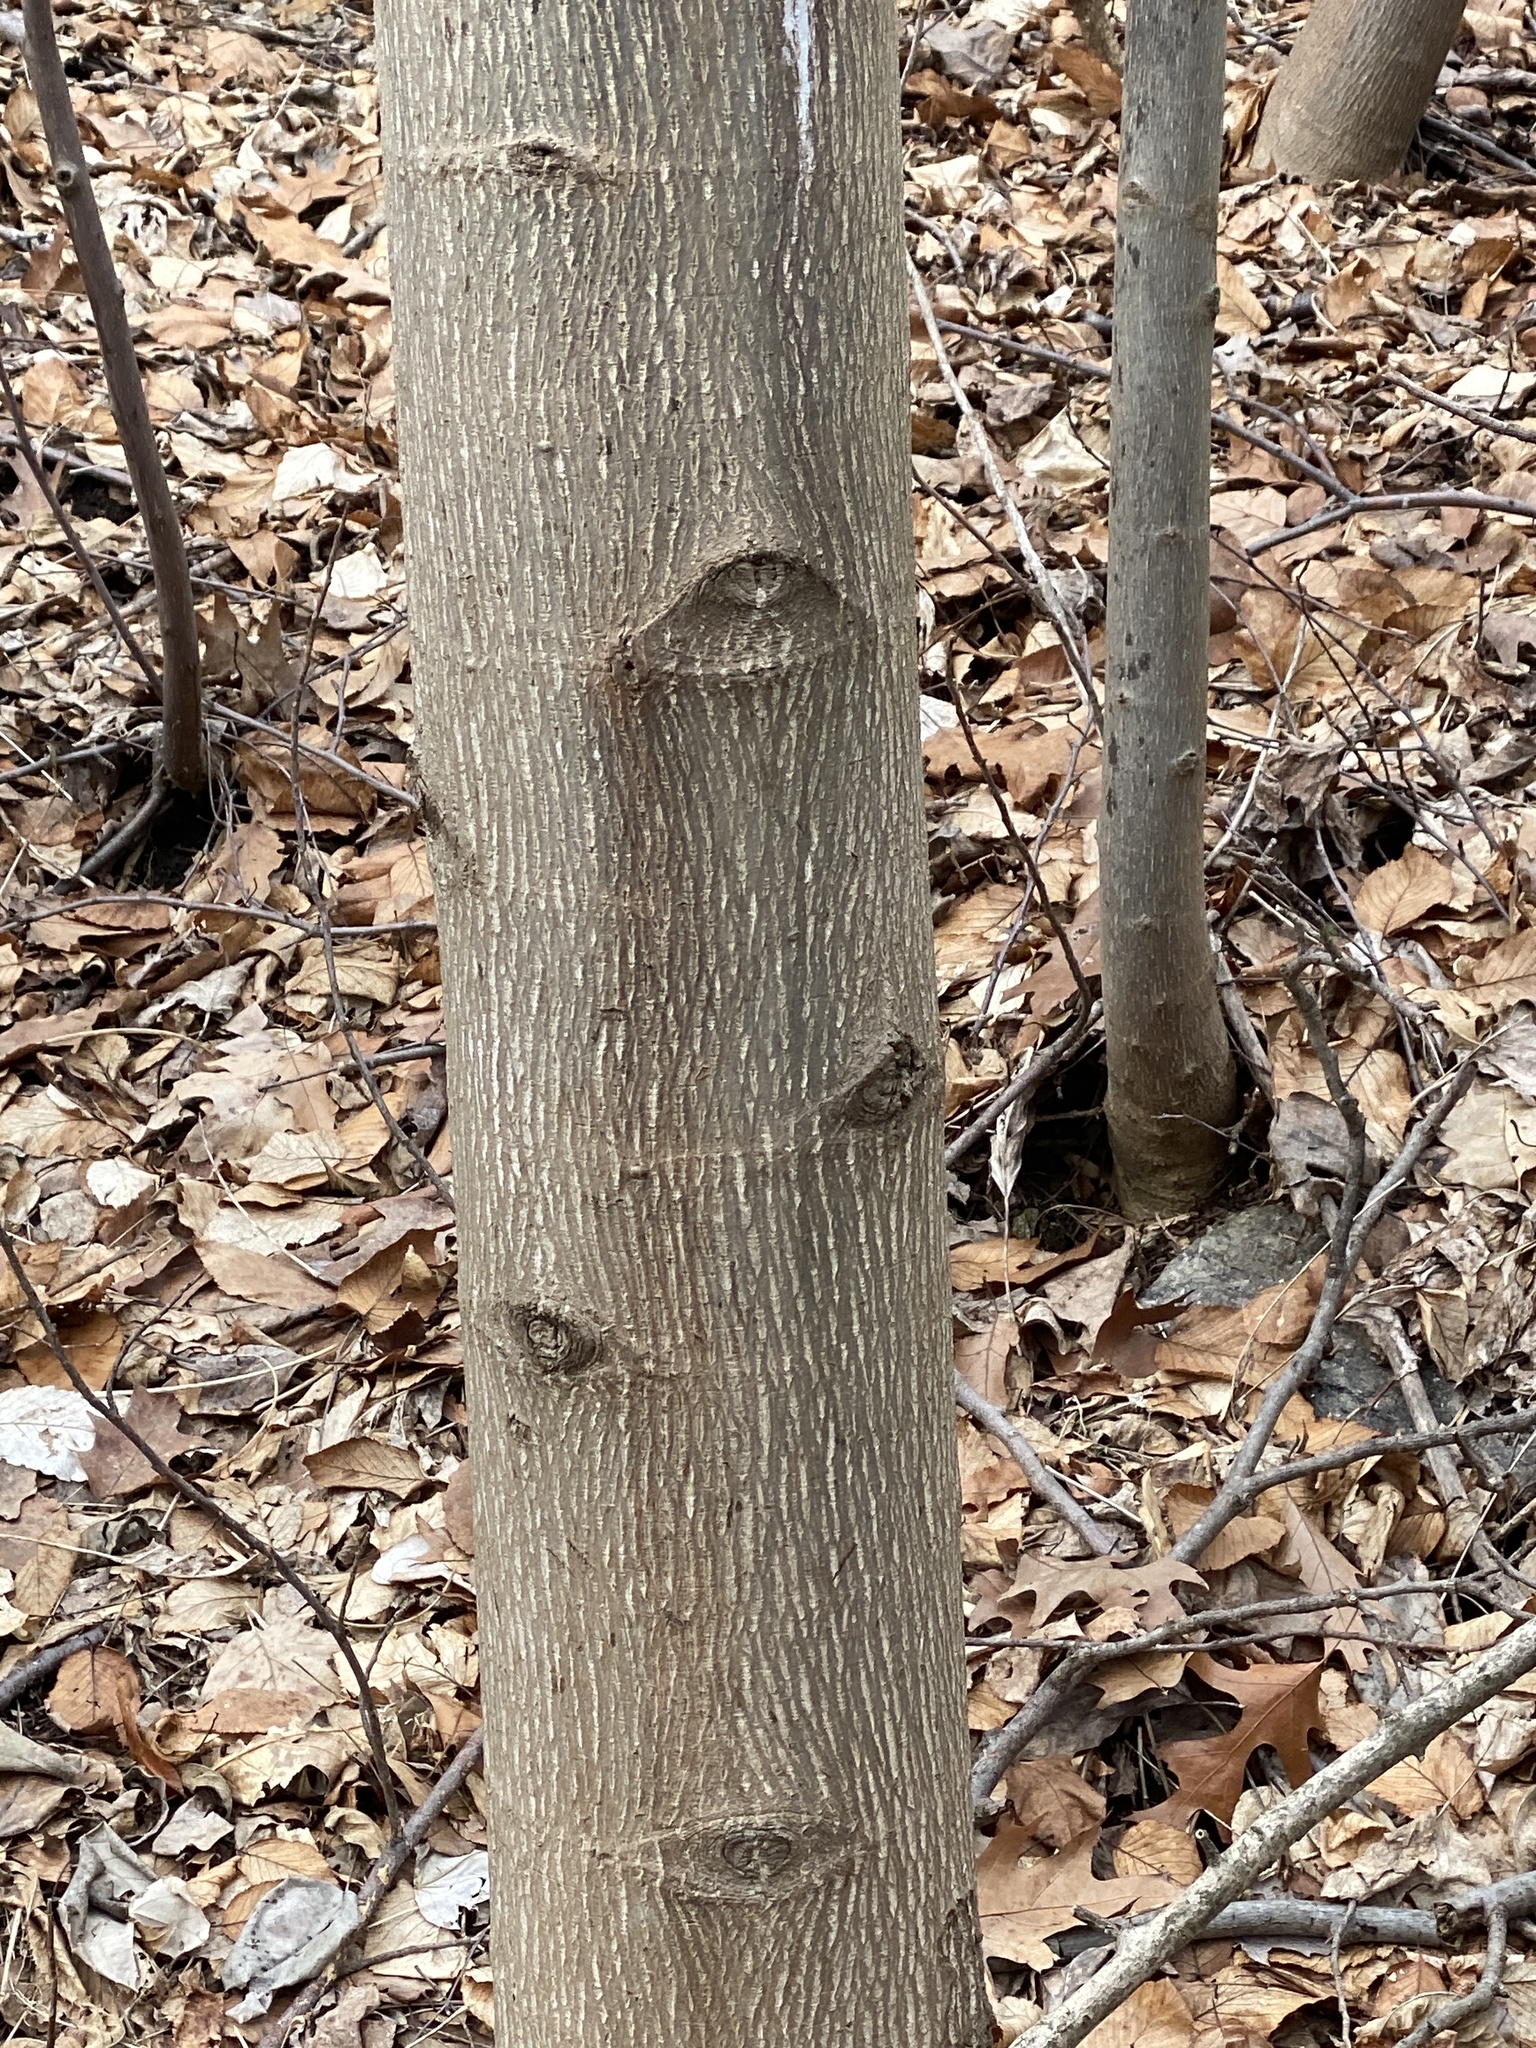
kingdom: Plantae
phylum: Tracheophyta
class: Magnoliopsida
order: Magnoliales
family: Magnoliaceae
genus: Liriodendron
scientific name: Liriodendron tulipifera
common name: Tulip tree
